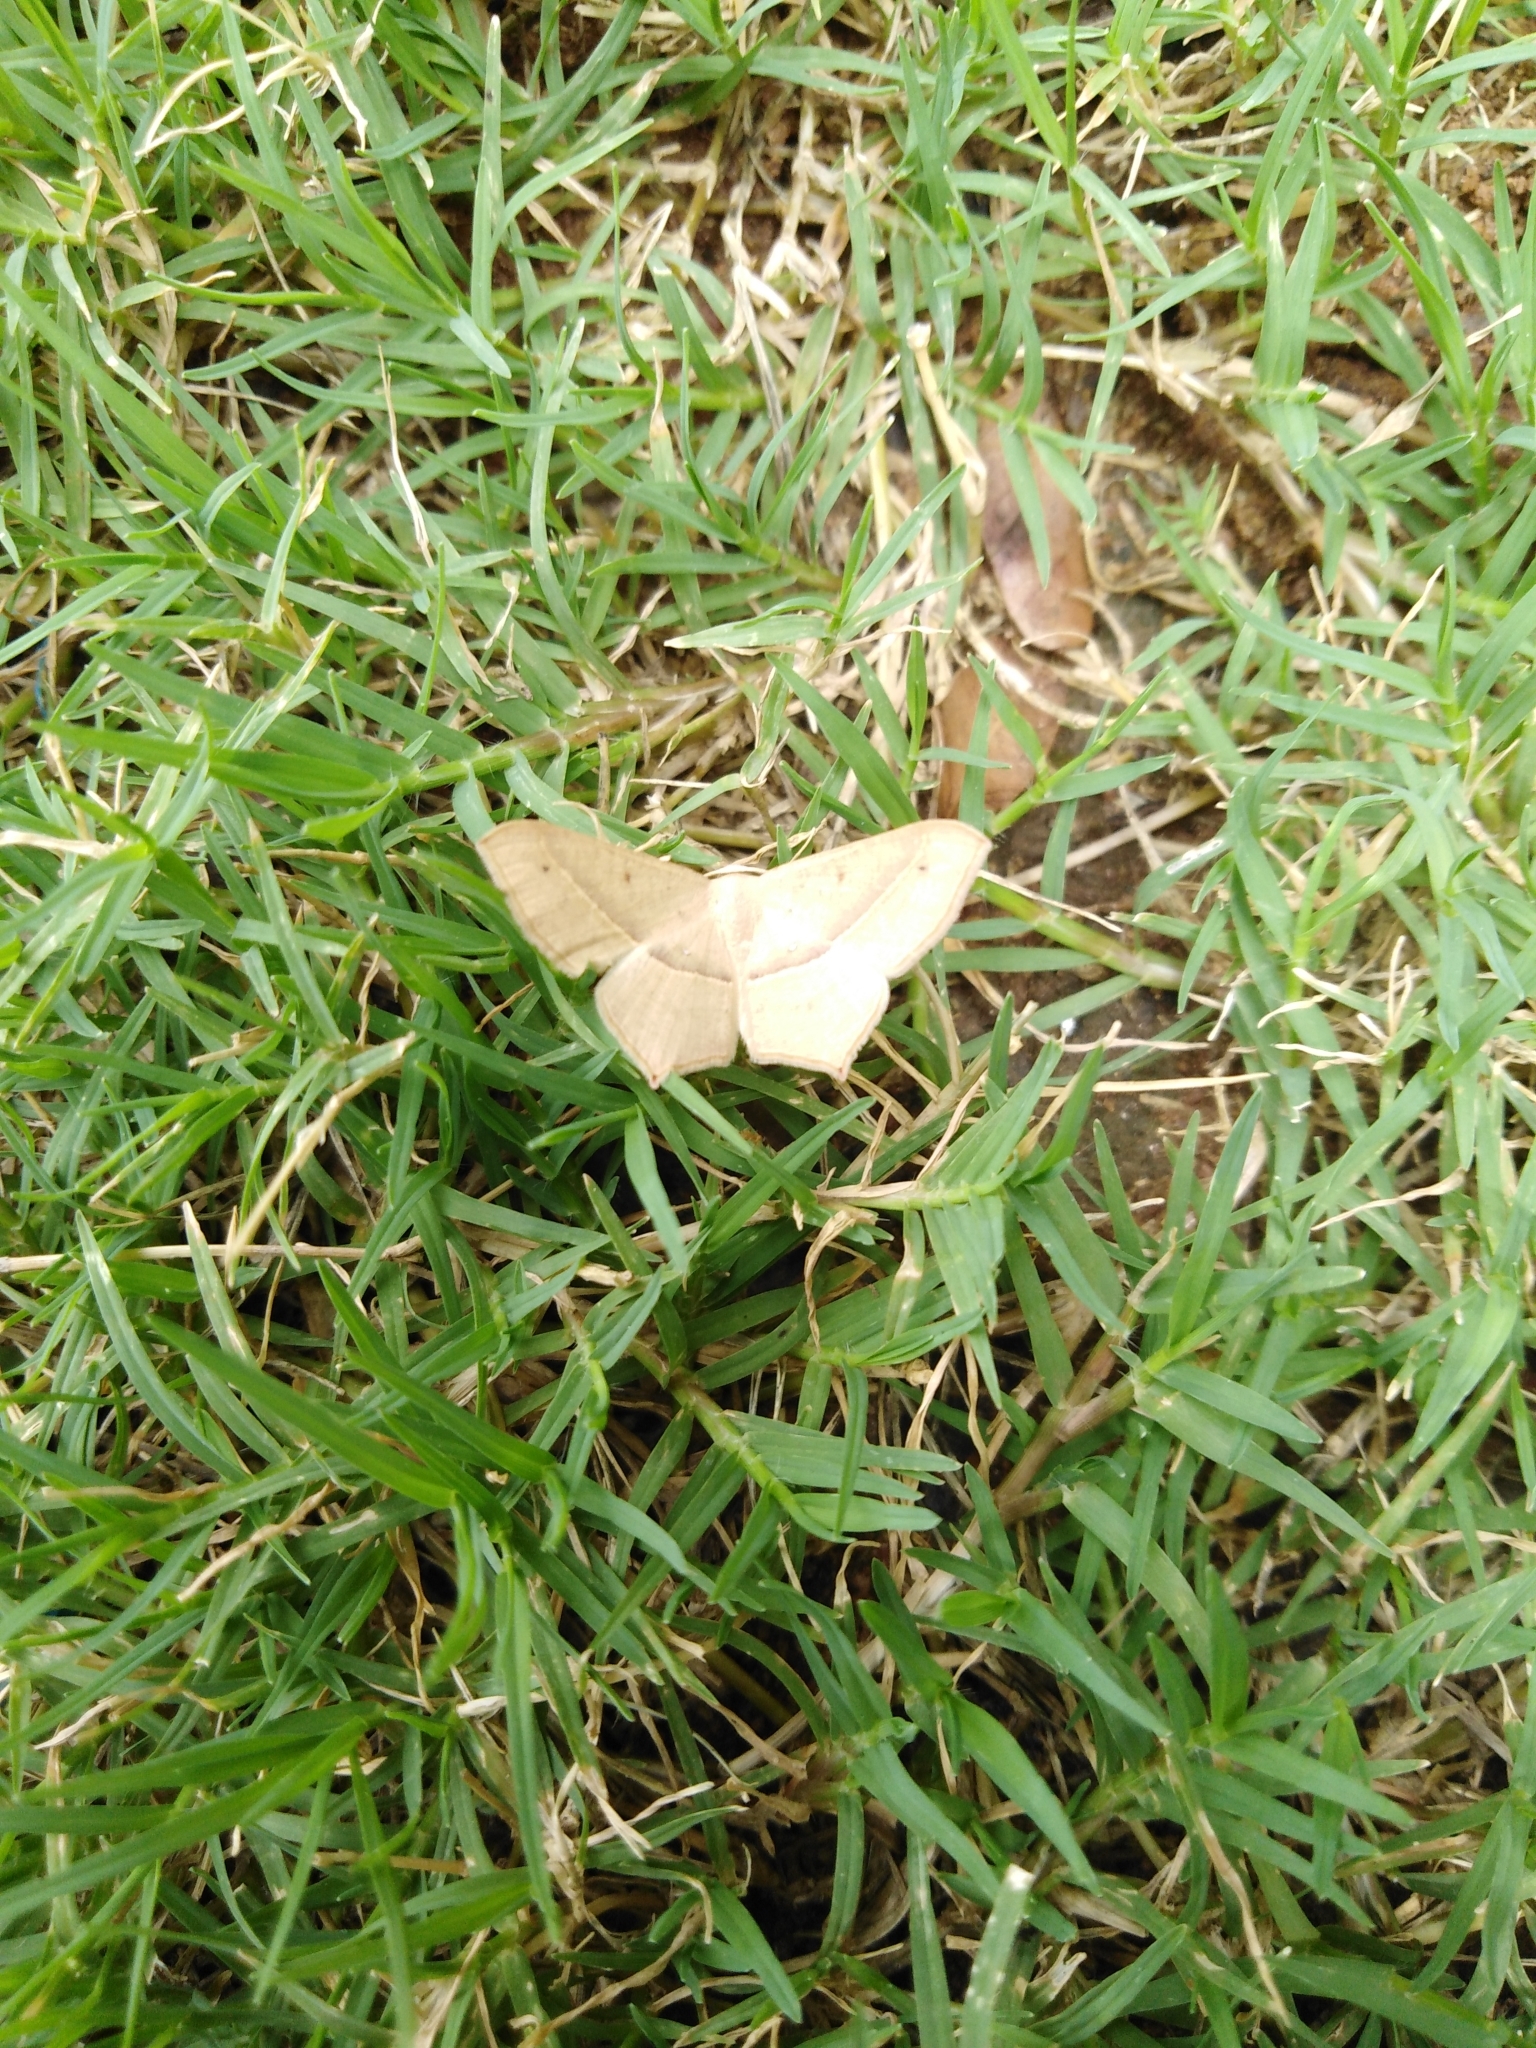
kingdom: Animalia
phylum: Arthropoda
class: Insecta
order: Lepidoptera
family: Geometridae
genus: Traminda
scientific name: Traminda mundissima
